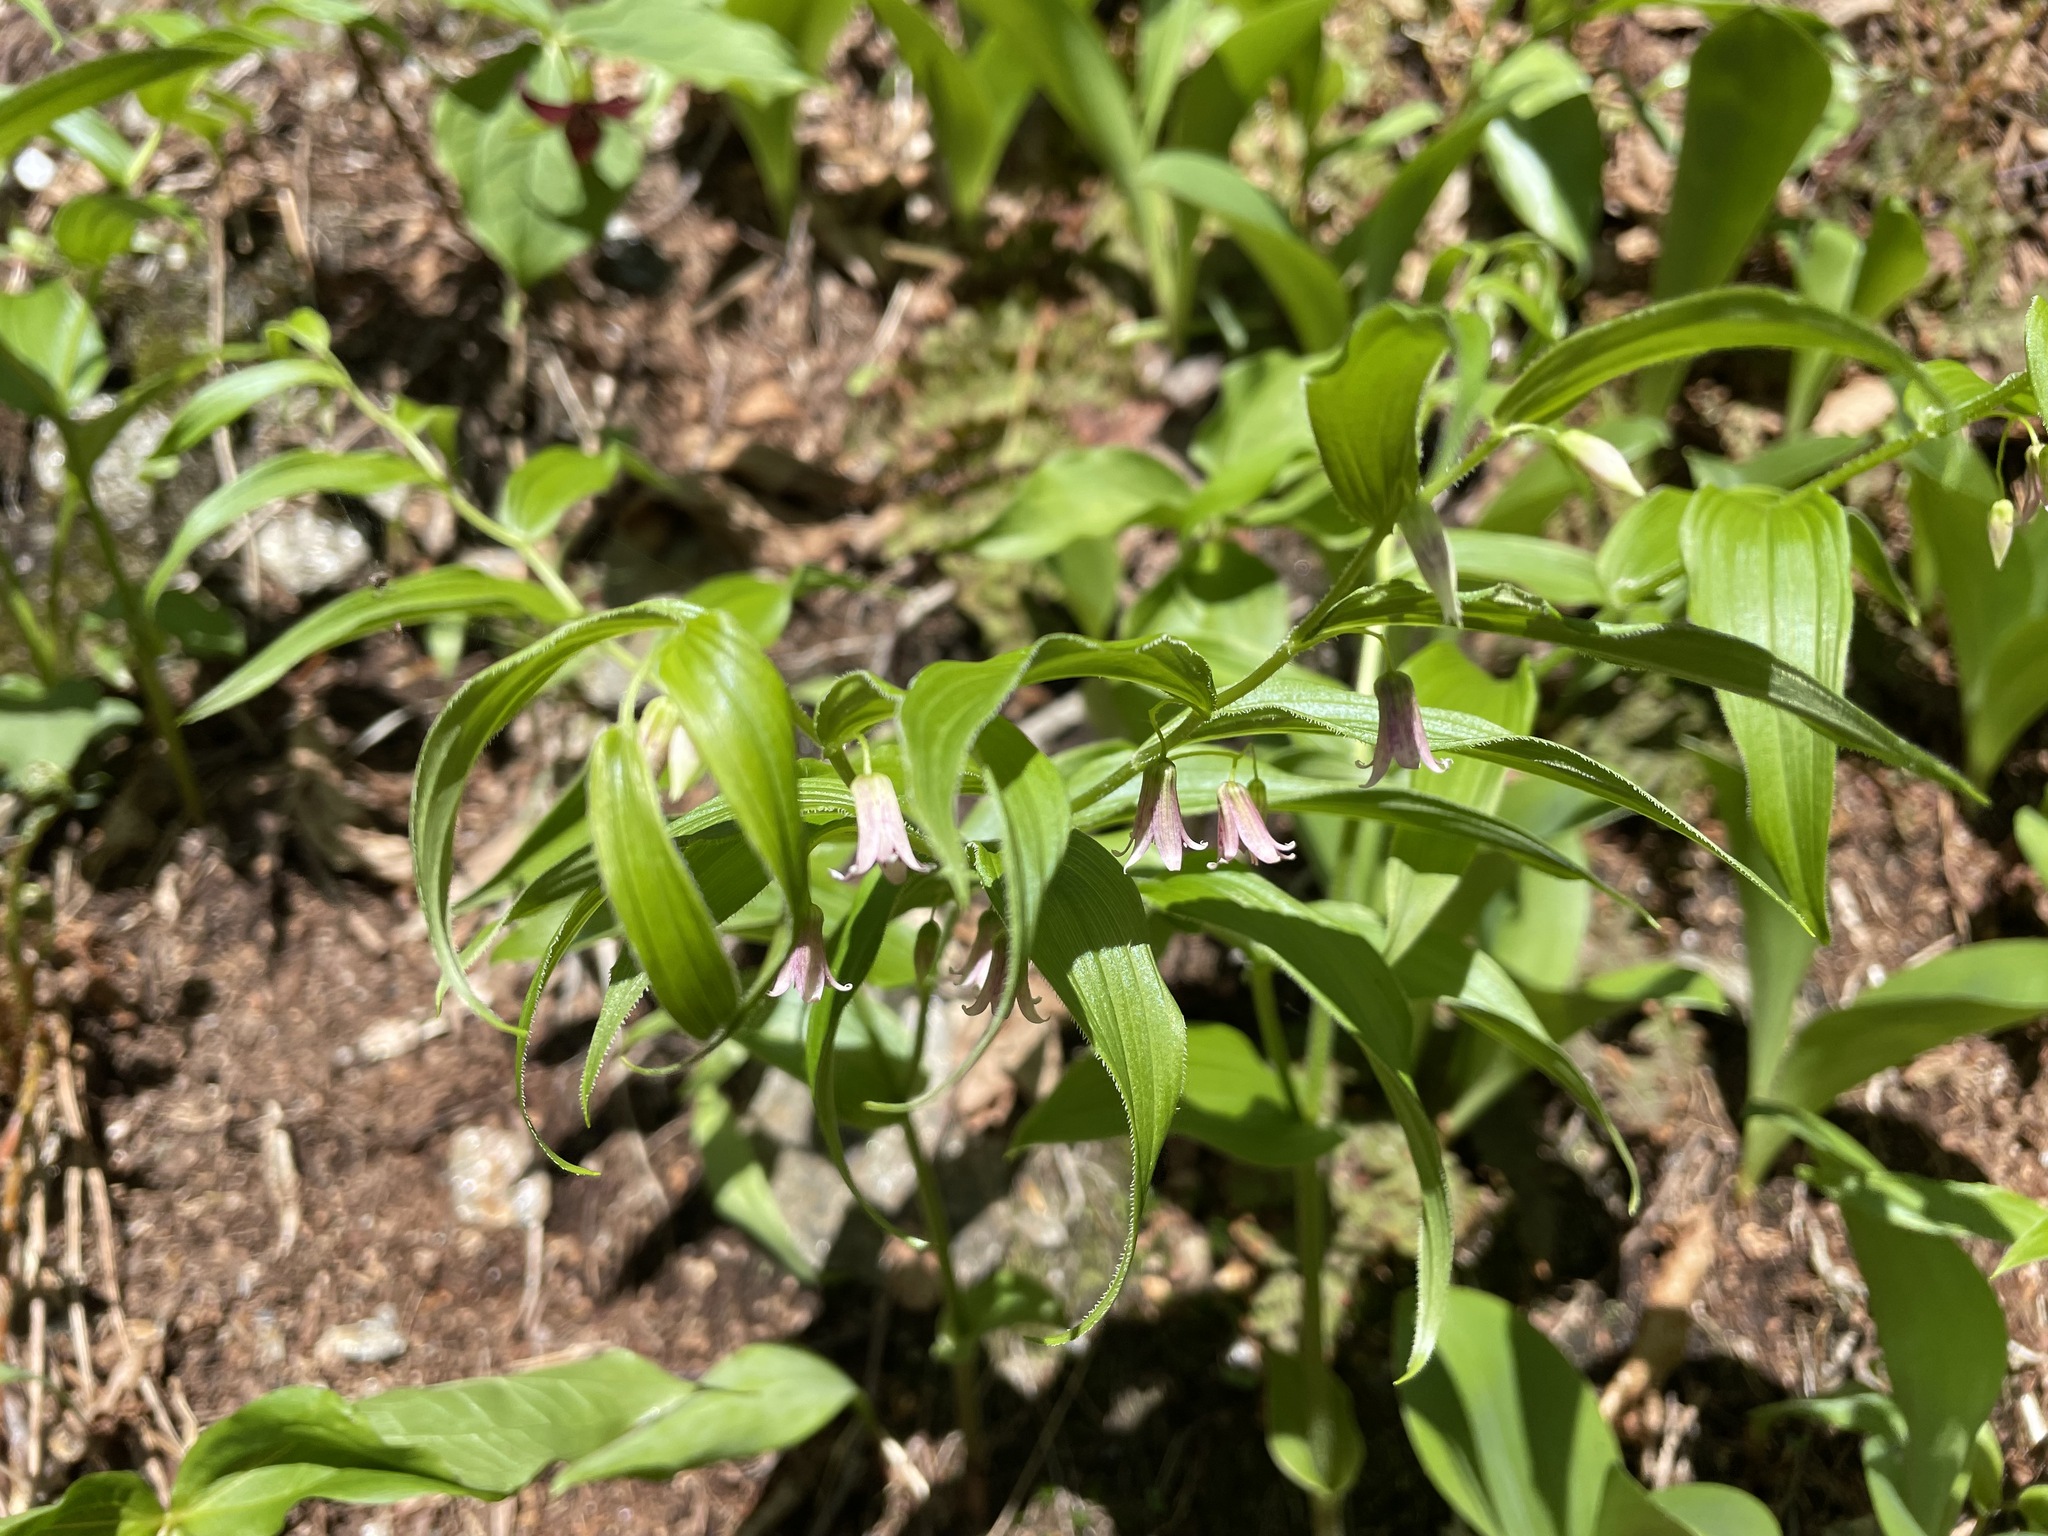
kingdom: Plantae
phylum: Tracheophyta
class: Liliopsida
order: Liliales
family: Liliaceae
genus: Streptopus
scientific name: Streptopus lanceolatus
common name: Rose mandarin
